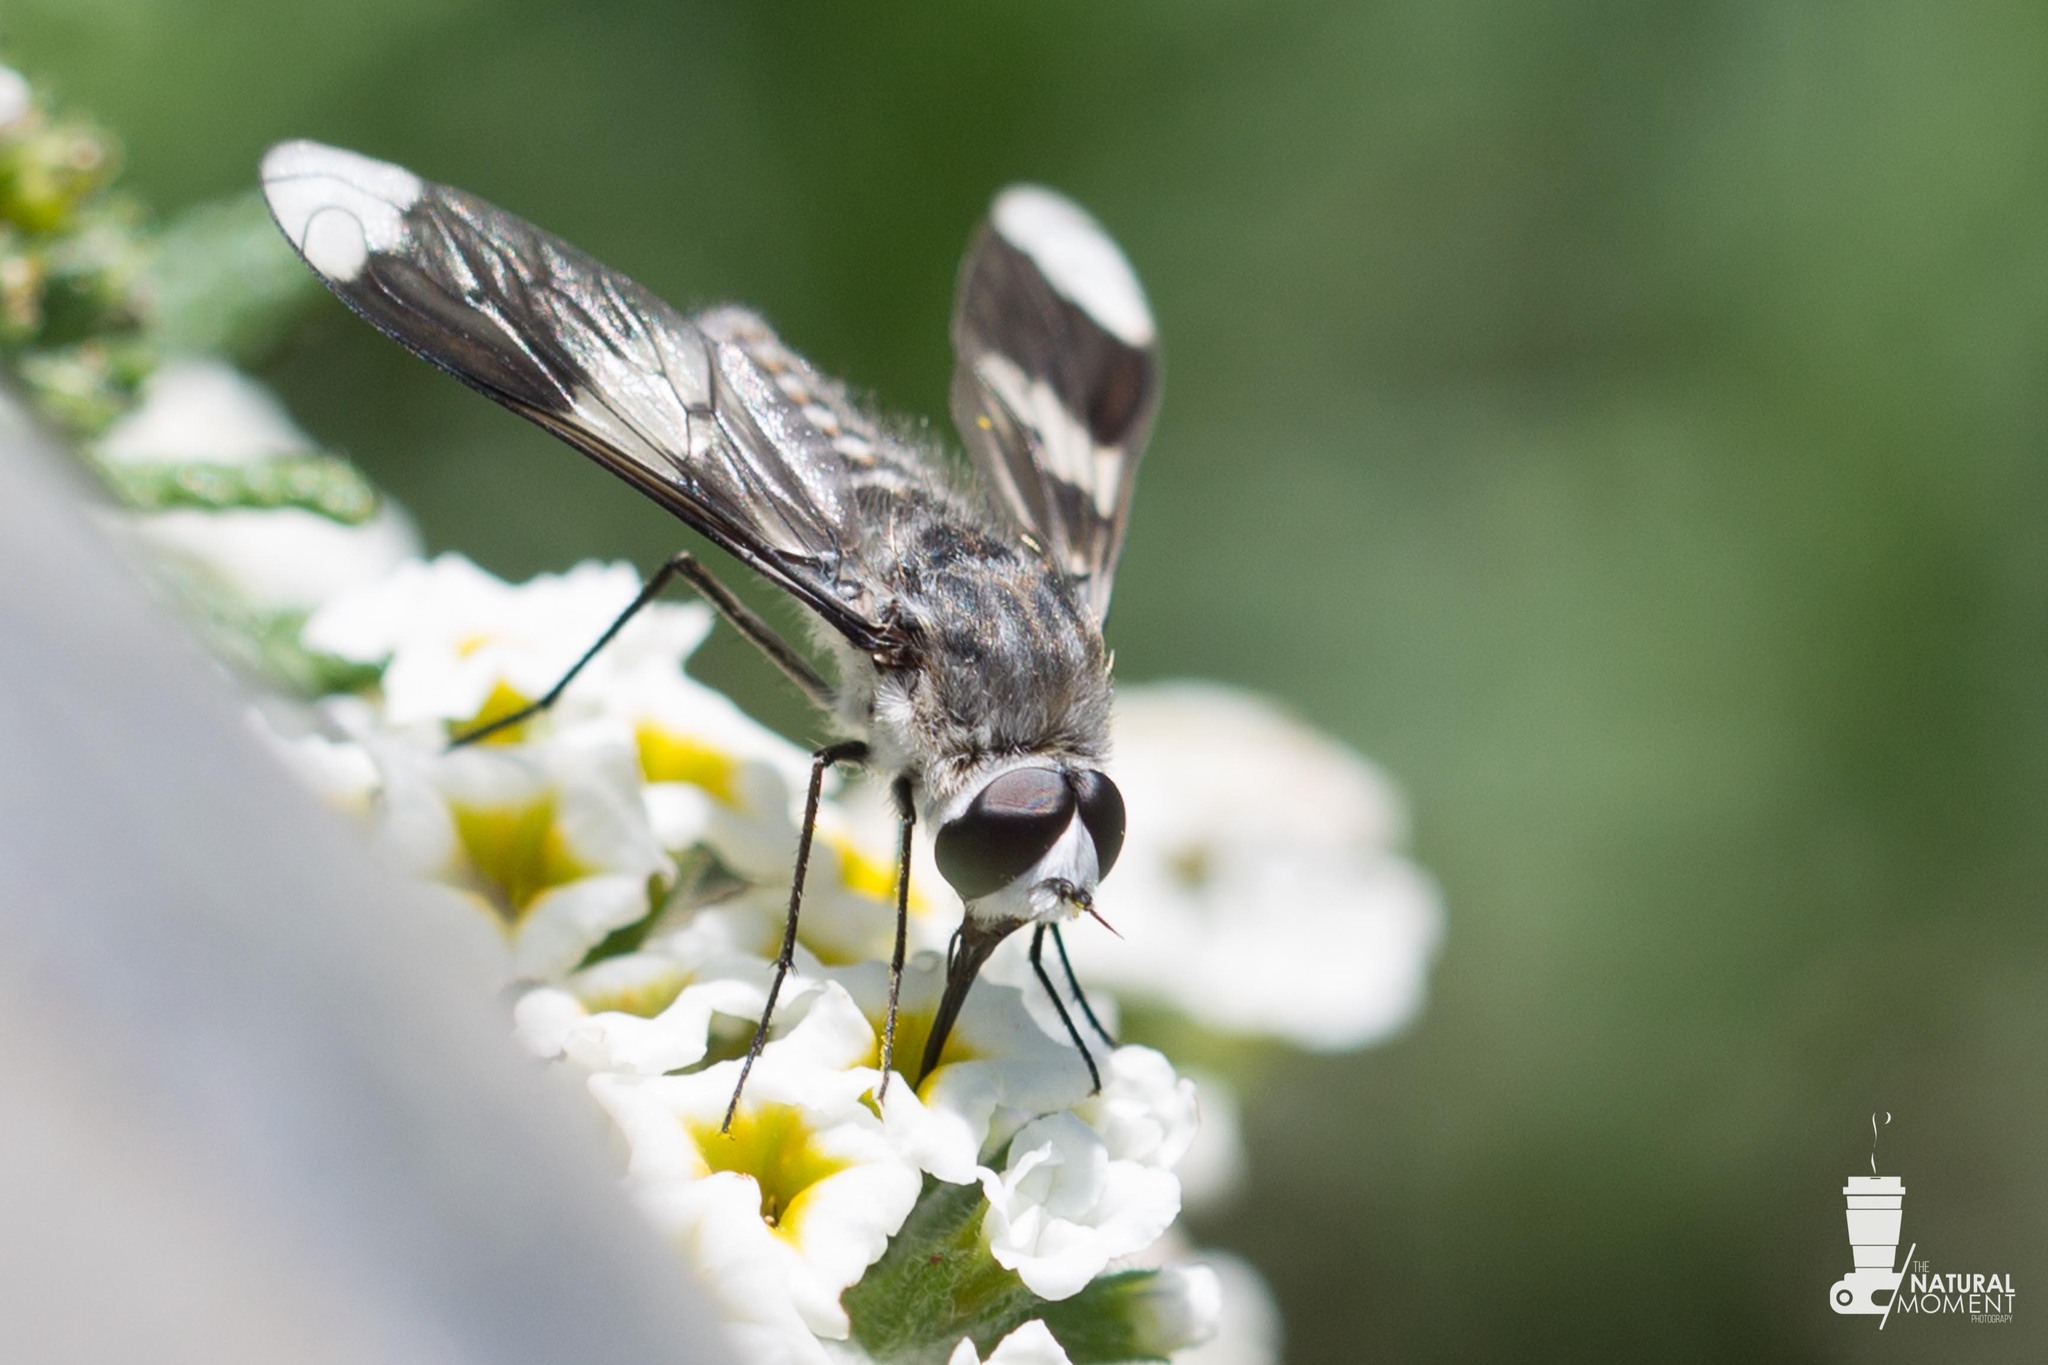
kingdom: Animalia
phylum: Arthropoda
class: Insecta
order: Diptera
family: Bombyliidae
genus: Macrocondyla
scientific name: Macrocondyla consobrina
